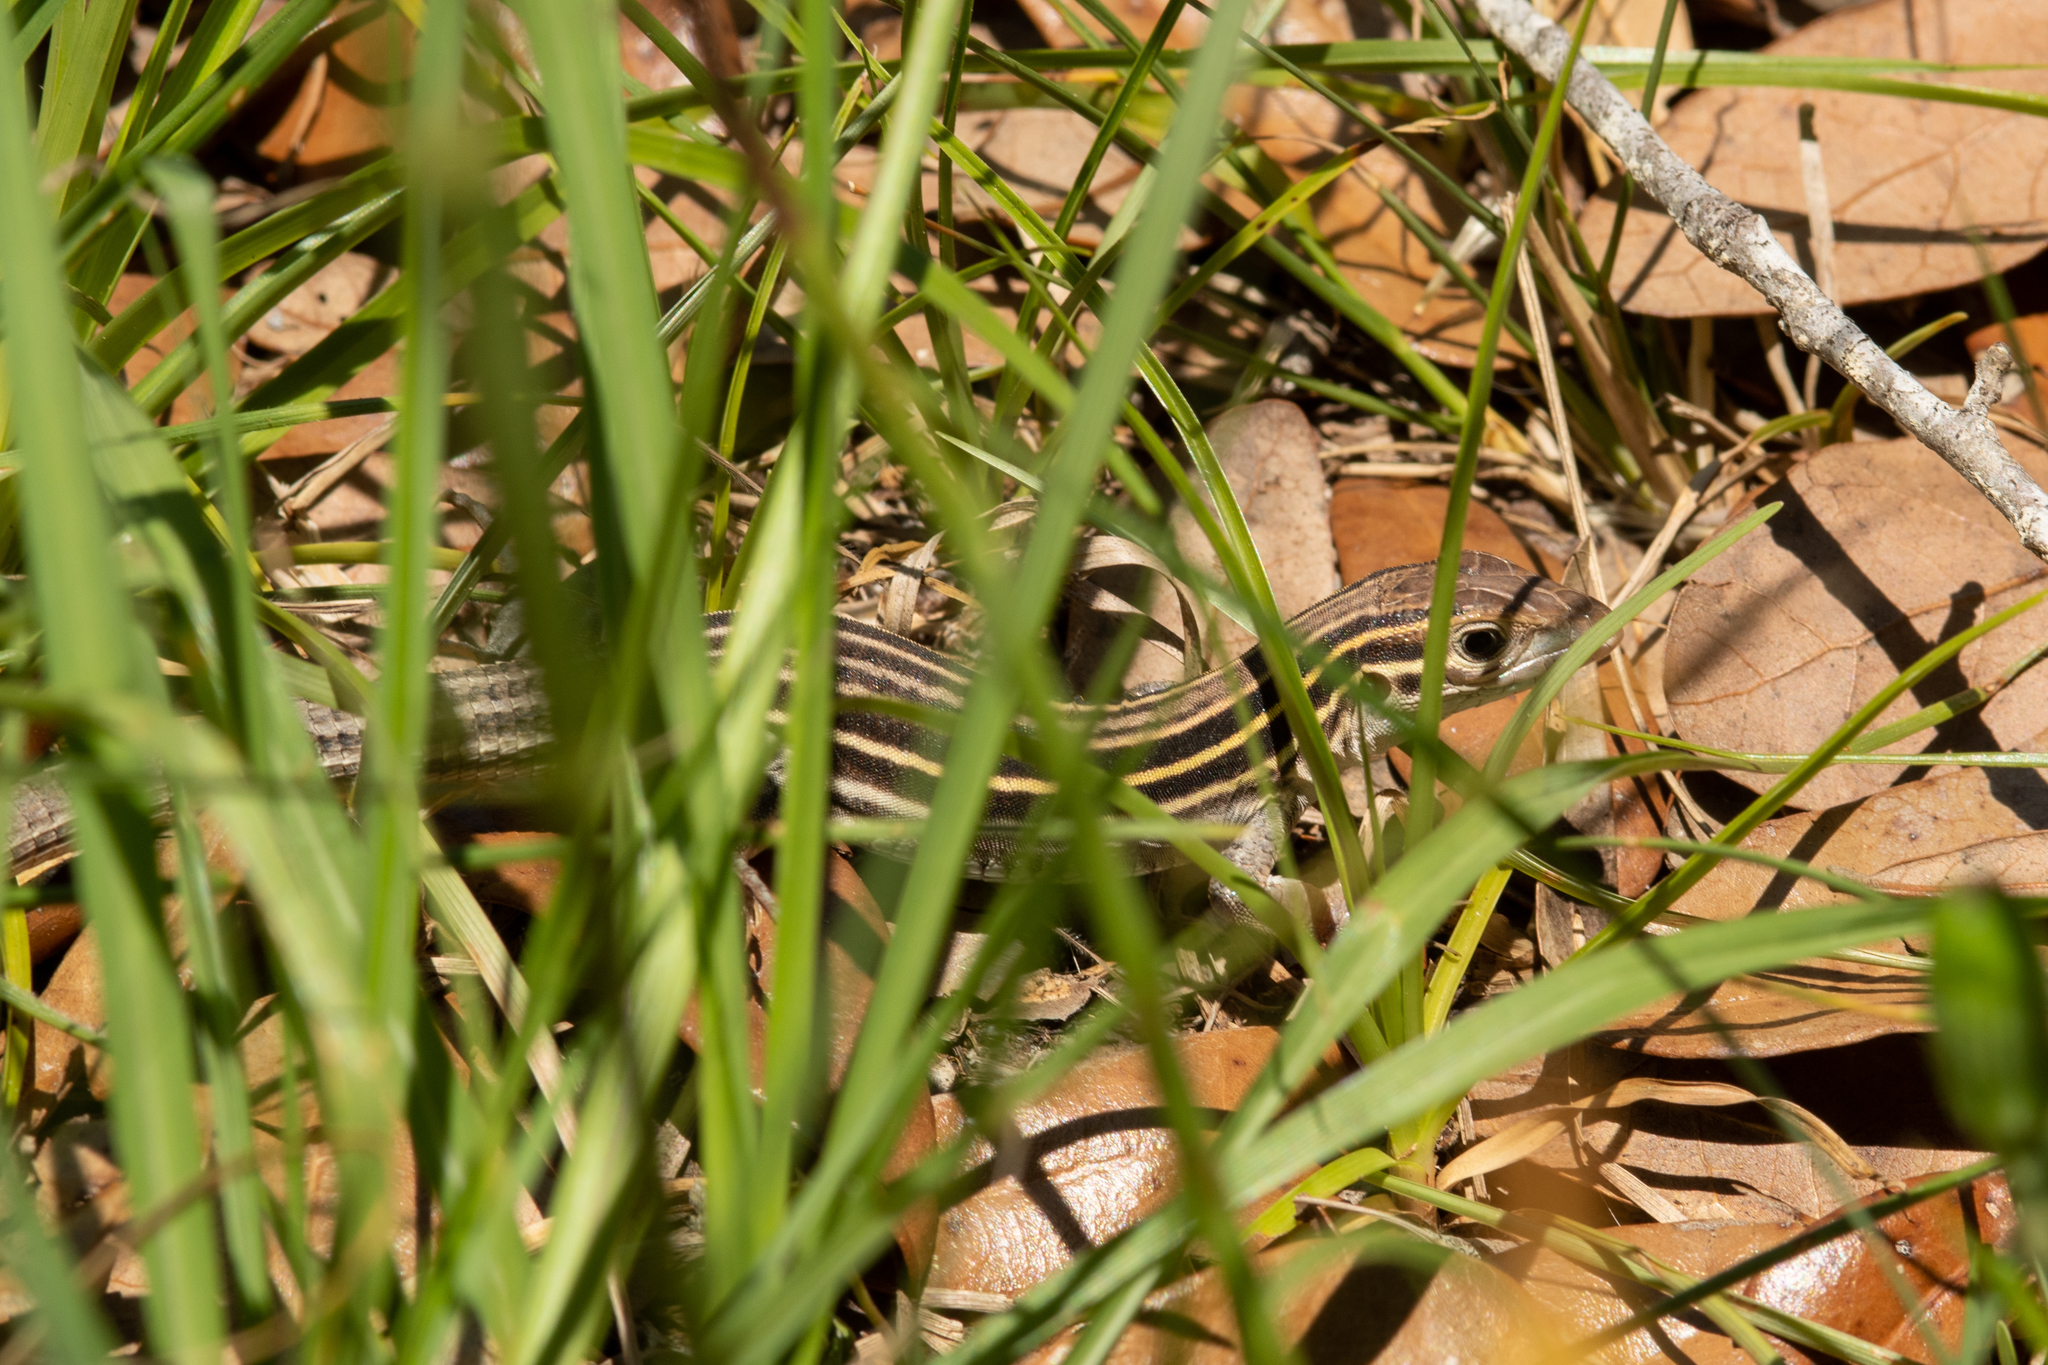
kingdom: Animalia
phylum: Chordata
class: Squamata
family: Teiidae
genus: Aspidoscelis
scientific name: Aspidoscelis sexlineatus
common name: Six-lined racerunner
